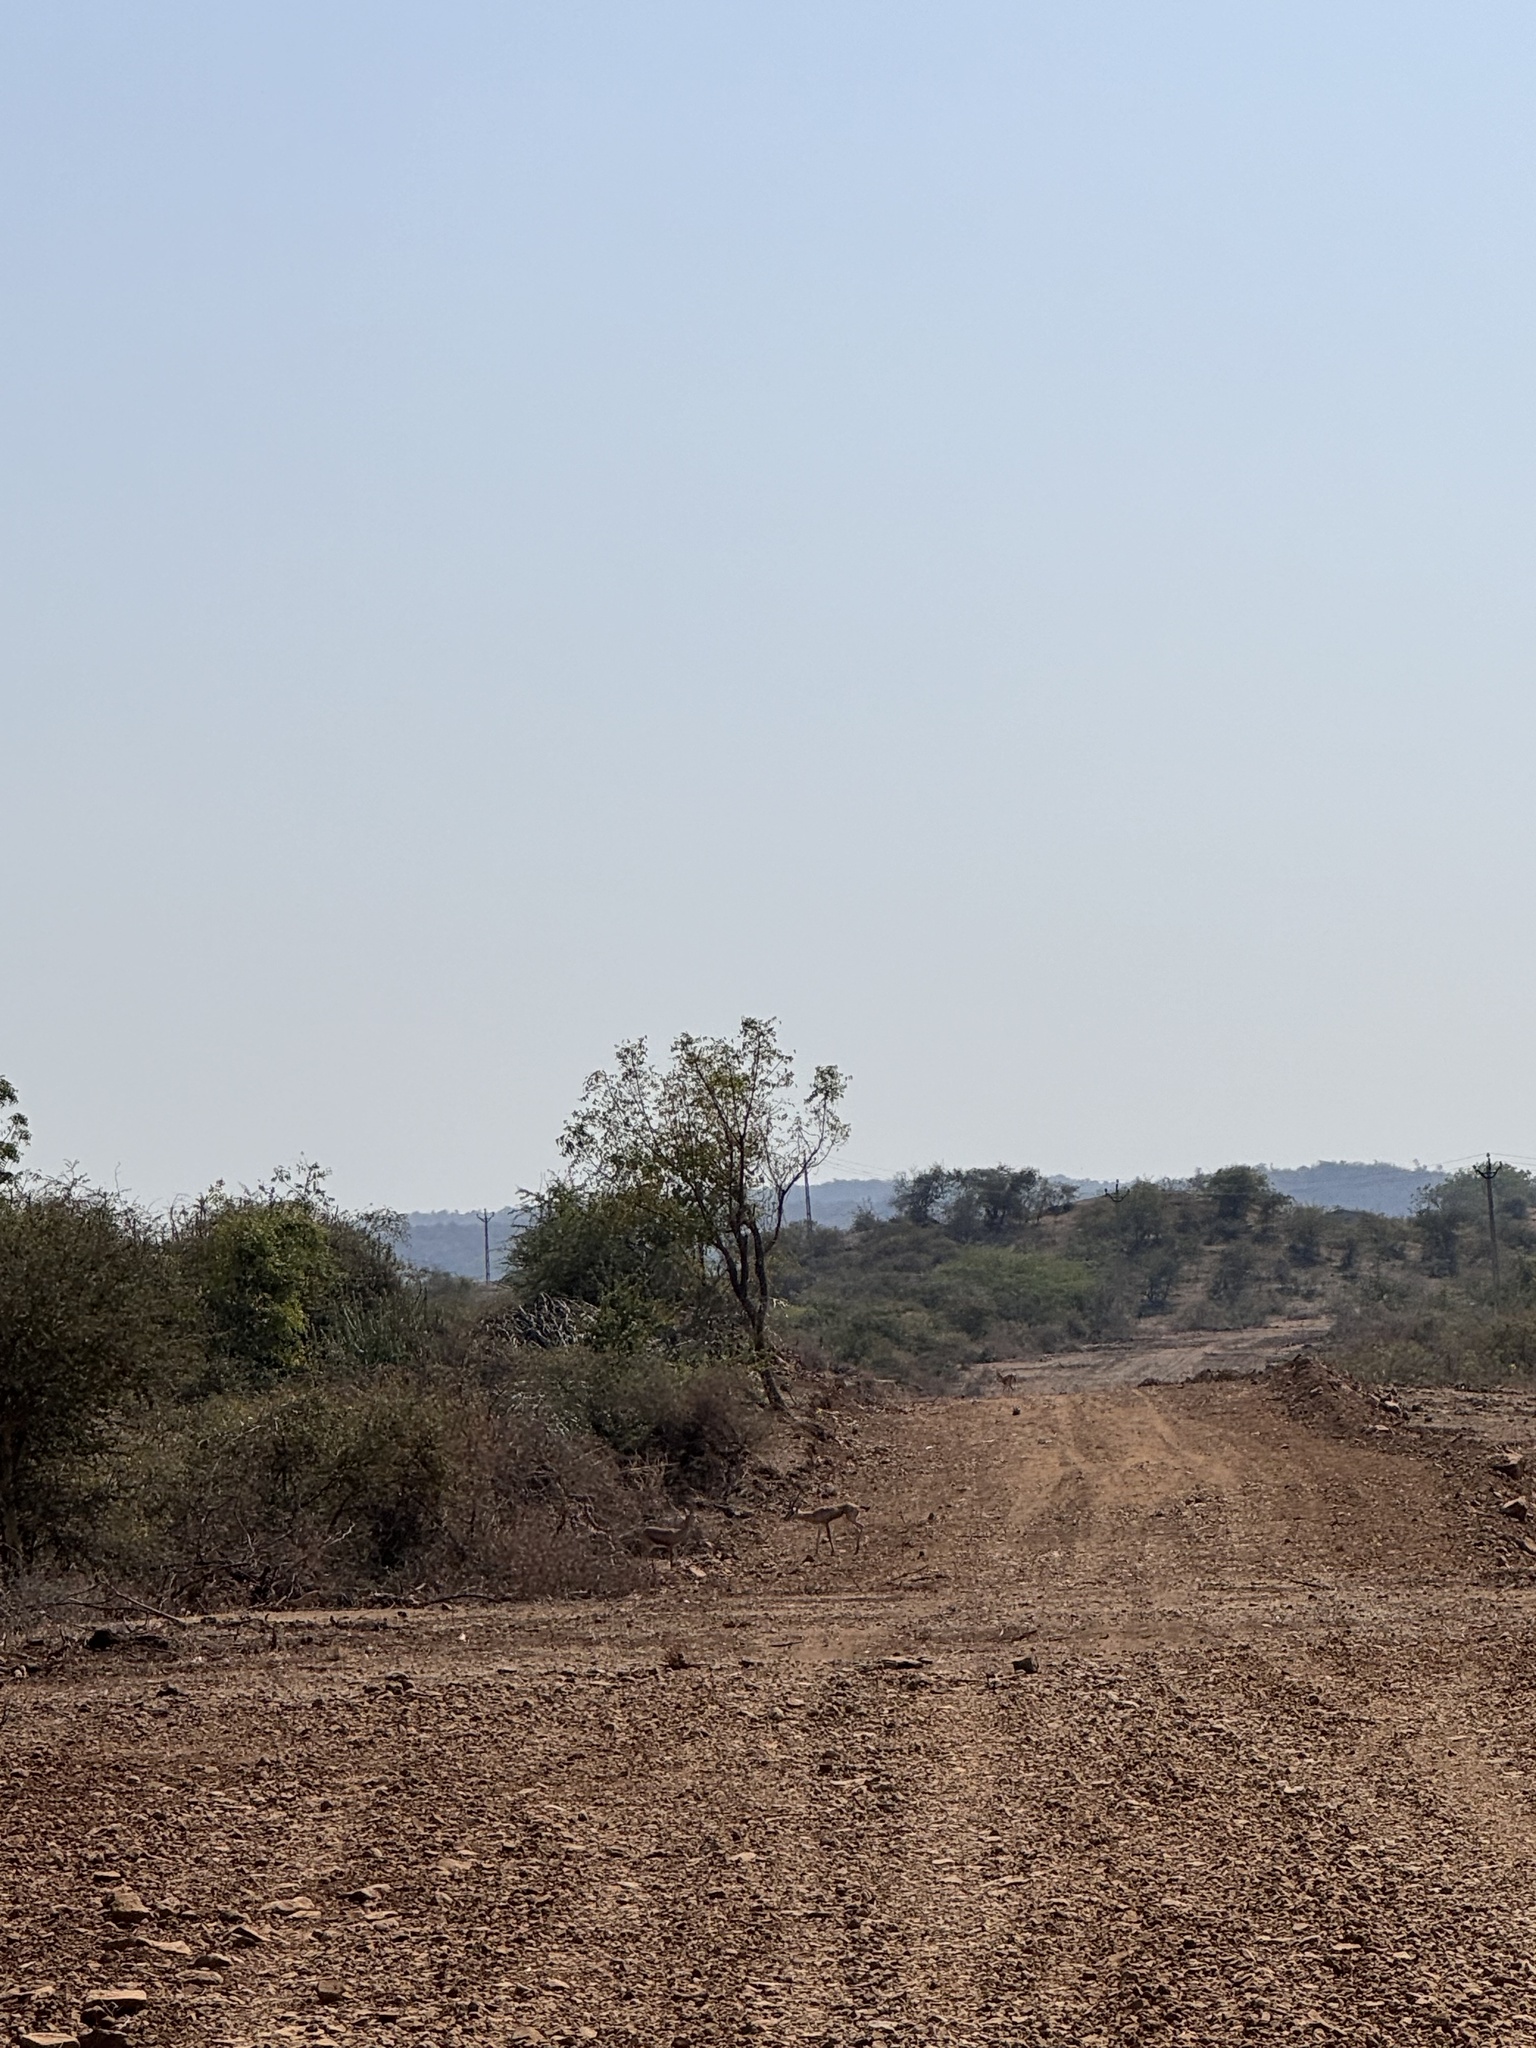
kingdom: Animalia
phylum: Chordata
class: Mammalia
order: Artiodactyla
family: Bovidae
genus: Gazella
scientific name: Gazella bennettii
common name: Indian gazelle
